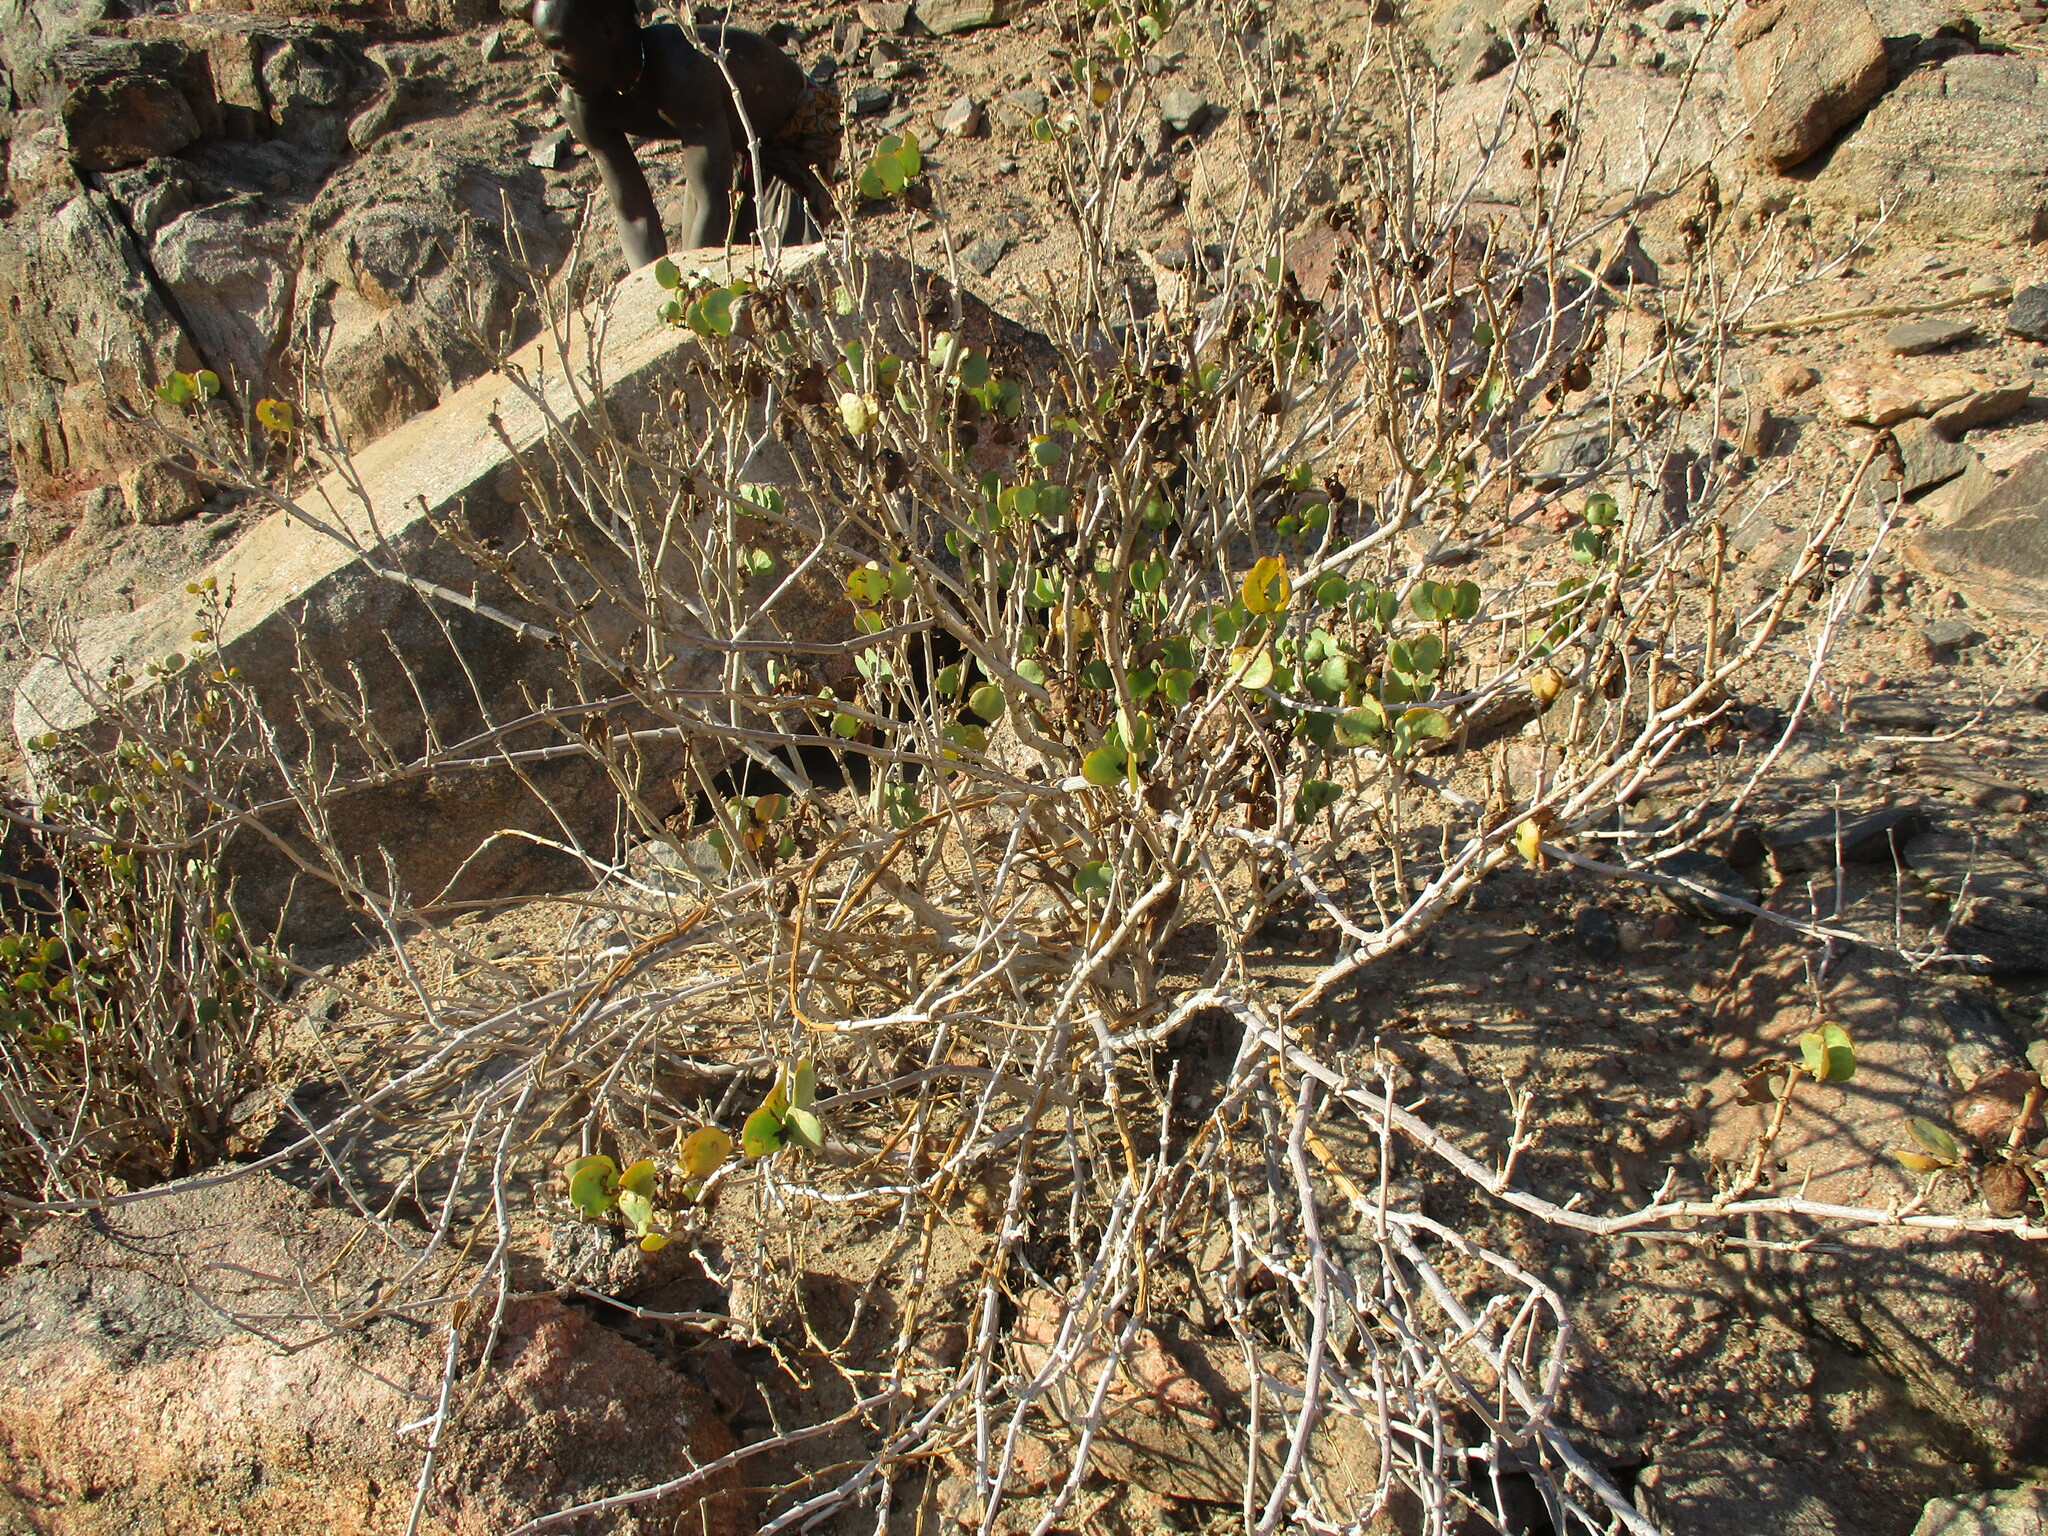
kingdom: Plantae
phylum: Tracheophyta
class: Magnoliopsida
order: Zygophyllales
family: Zygophyllaceae
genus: Tetraena
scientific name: Tetraena stapfii
